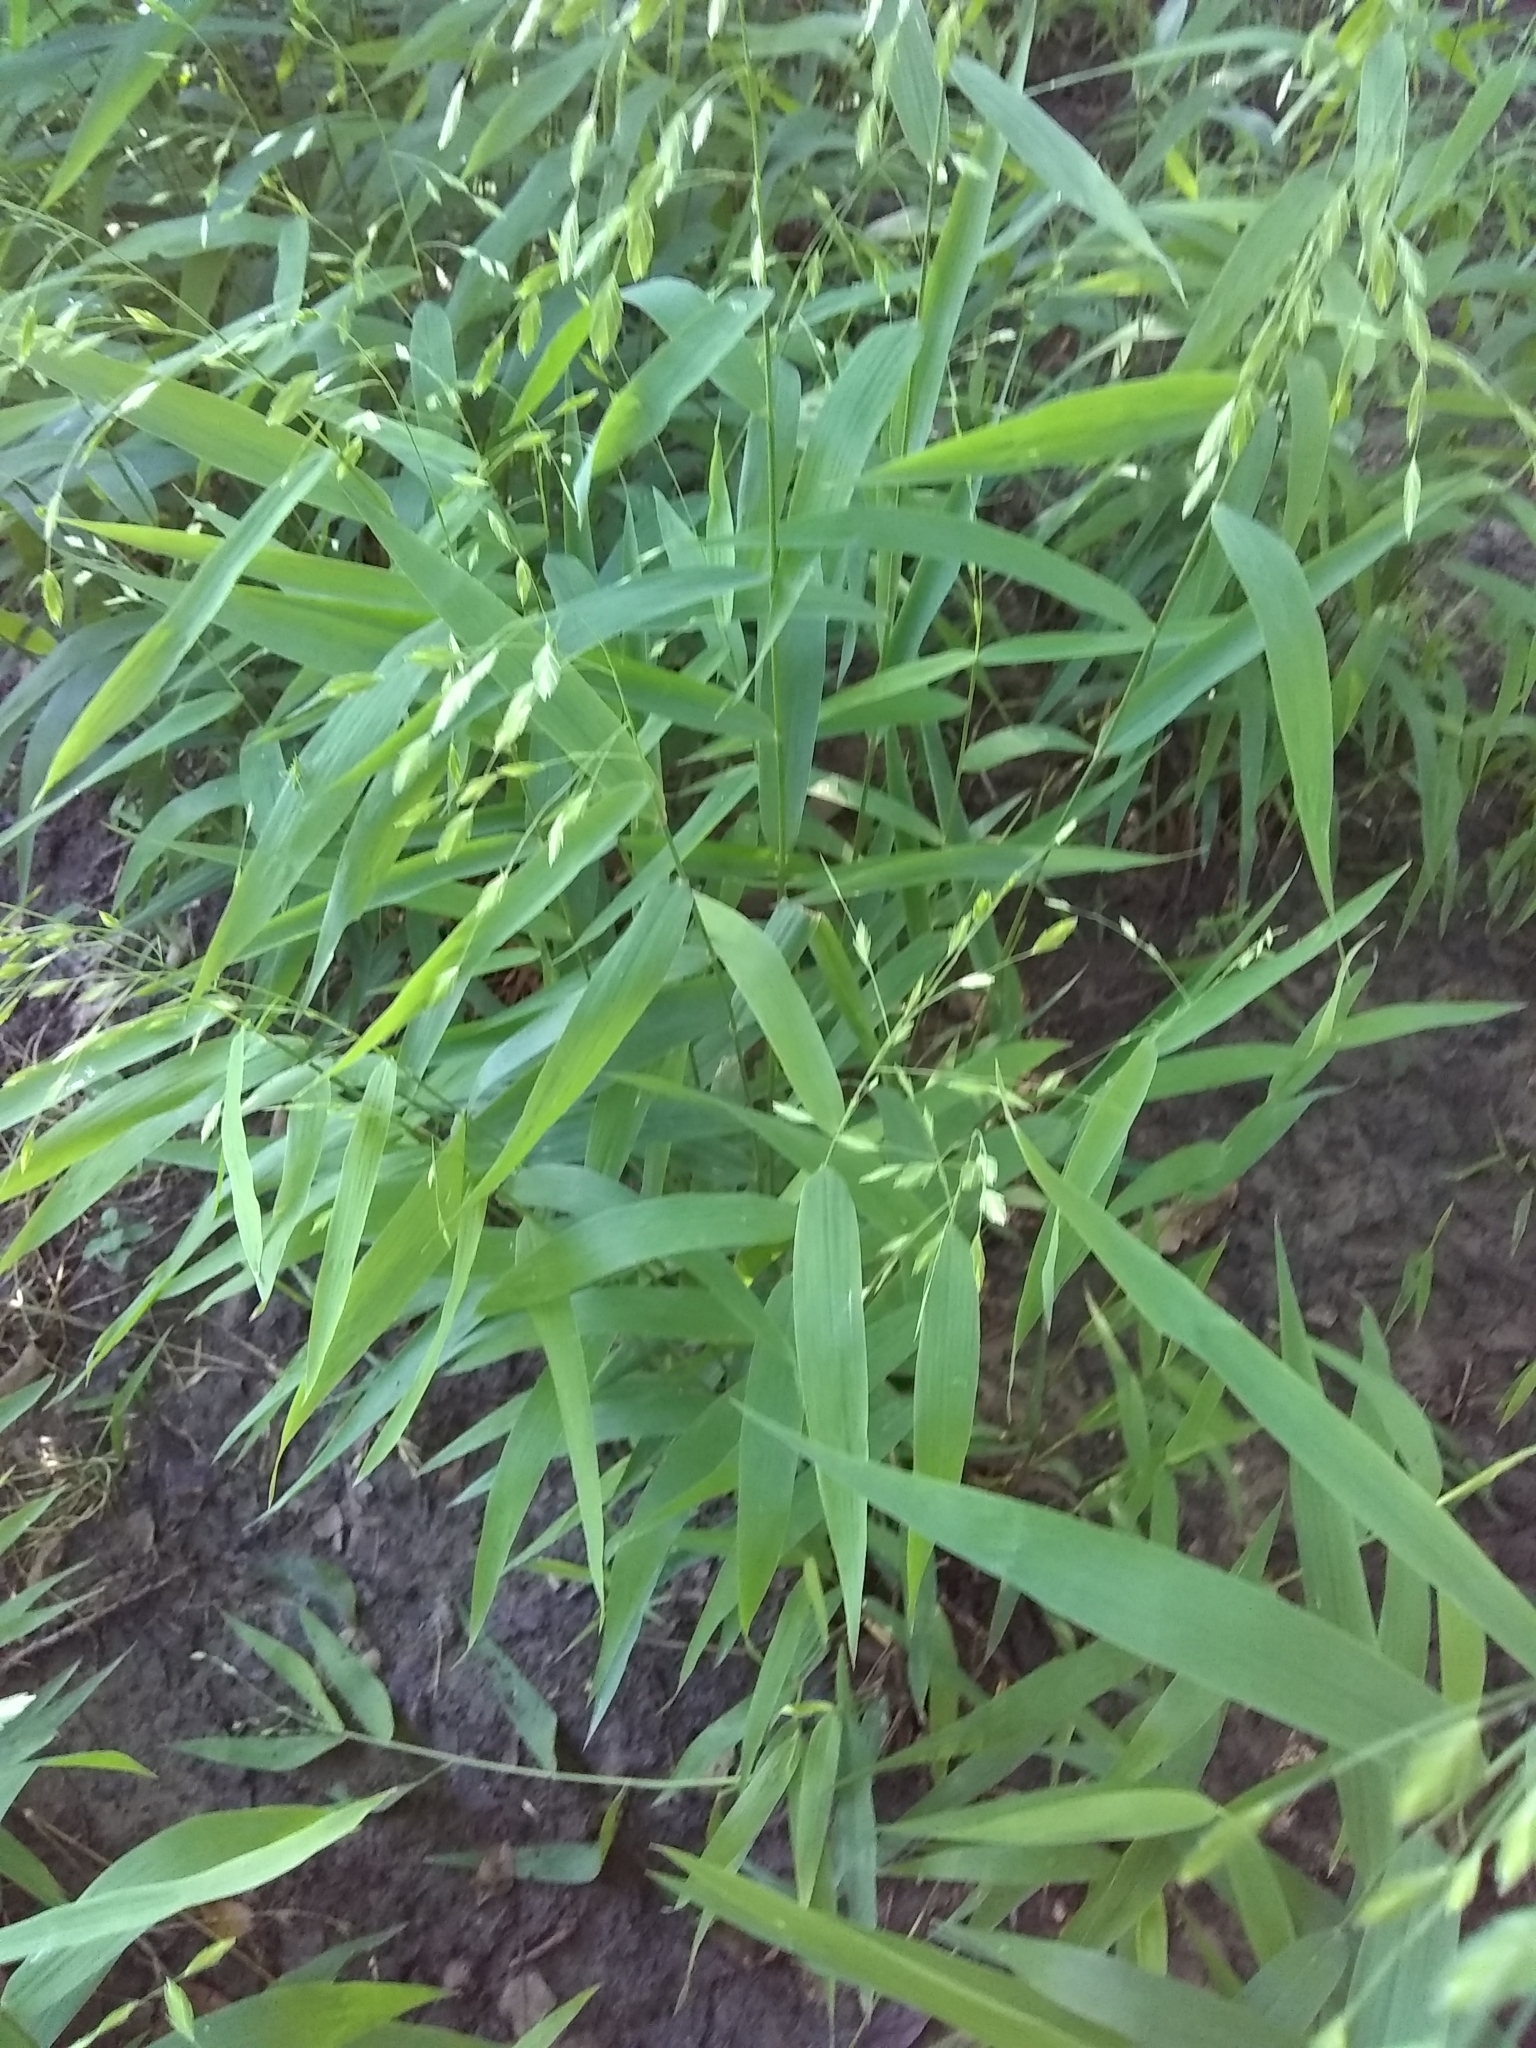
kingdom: Plantae
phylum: Tracheophyta
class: Liliopsida
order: Poales
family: Poaceae
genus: Chasmanthium
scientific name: Chasmanthium latifolium
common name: Broad-leaved chasmanthium
